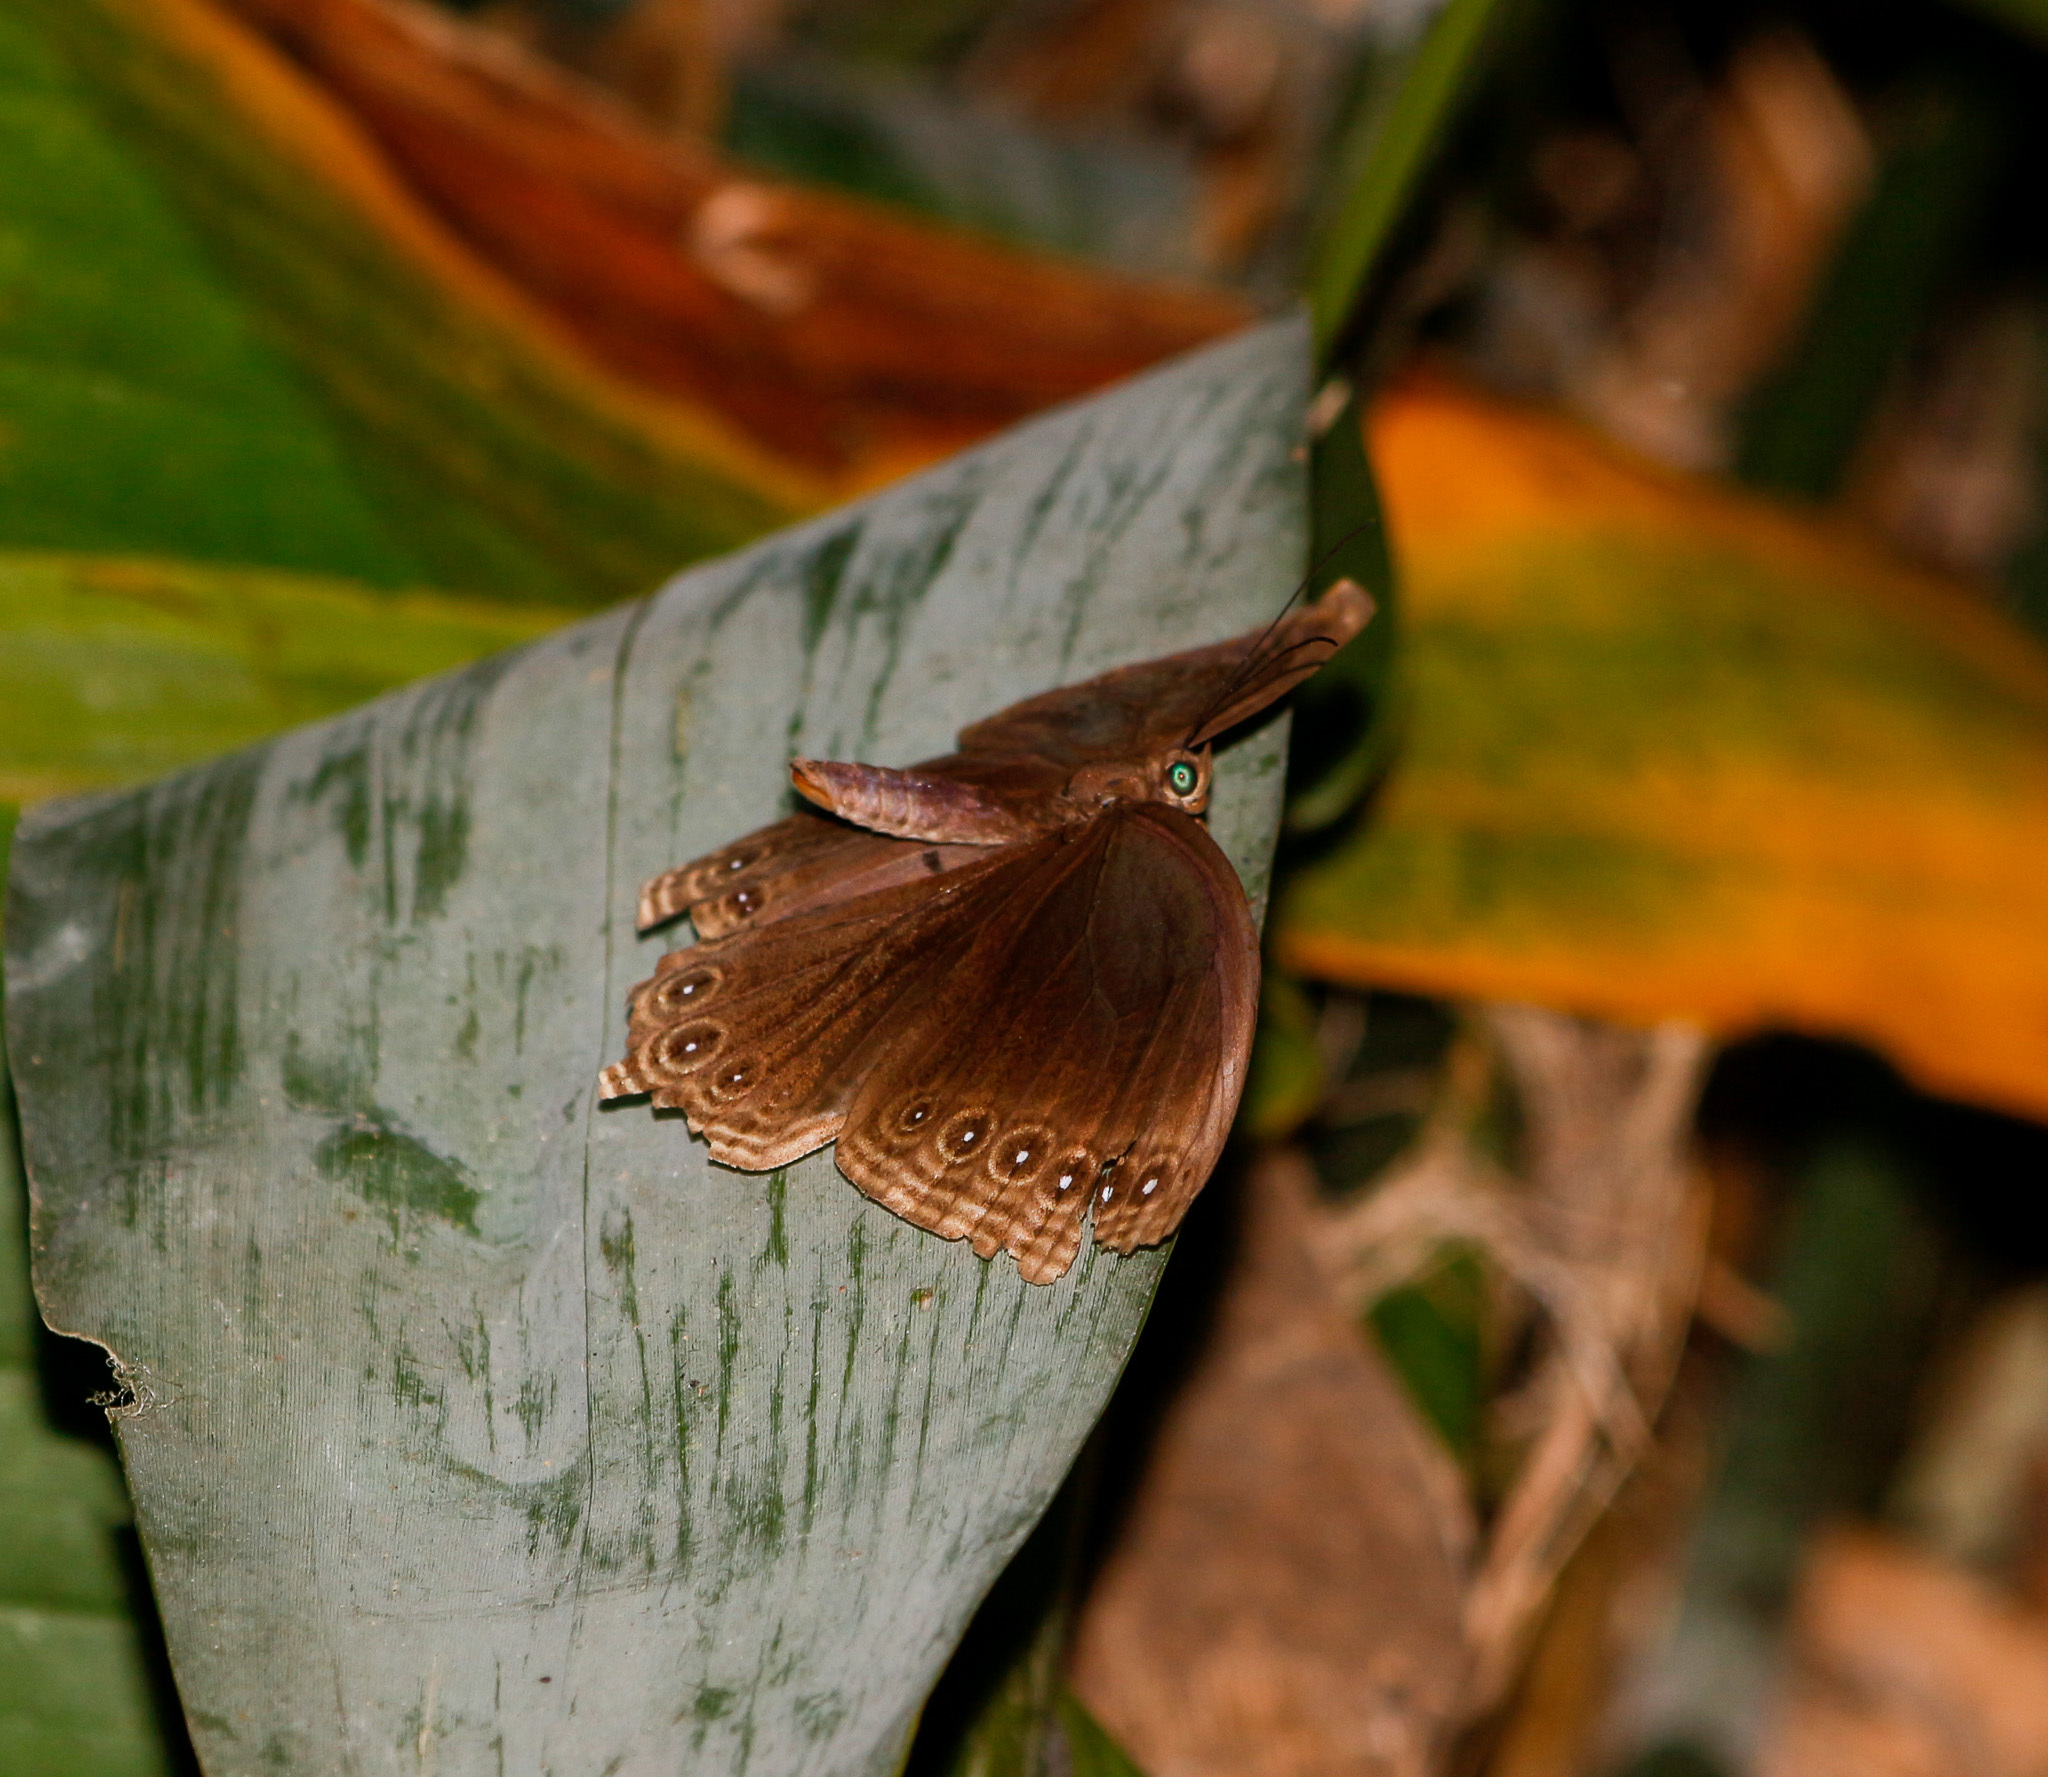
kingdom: Animalia
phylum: Arthropoda
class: Insecta
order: Lepidoptera
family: Nymphalidae
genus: Thaumantis
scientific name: Thaumantis diores
